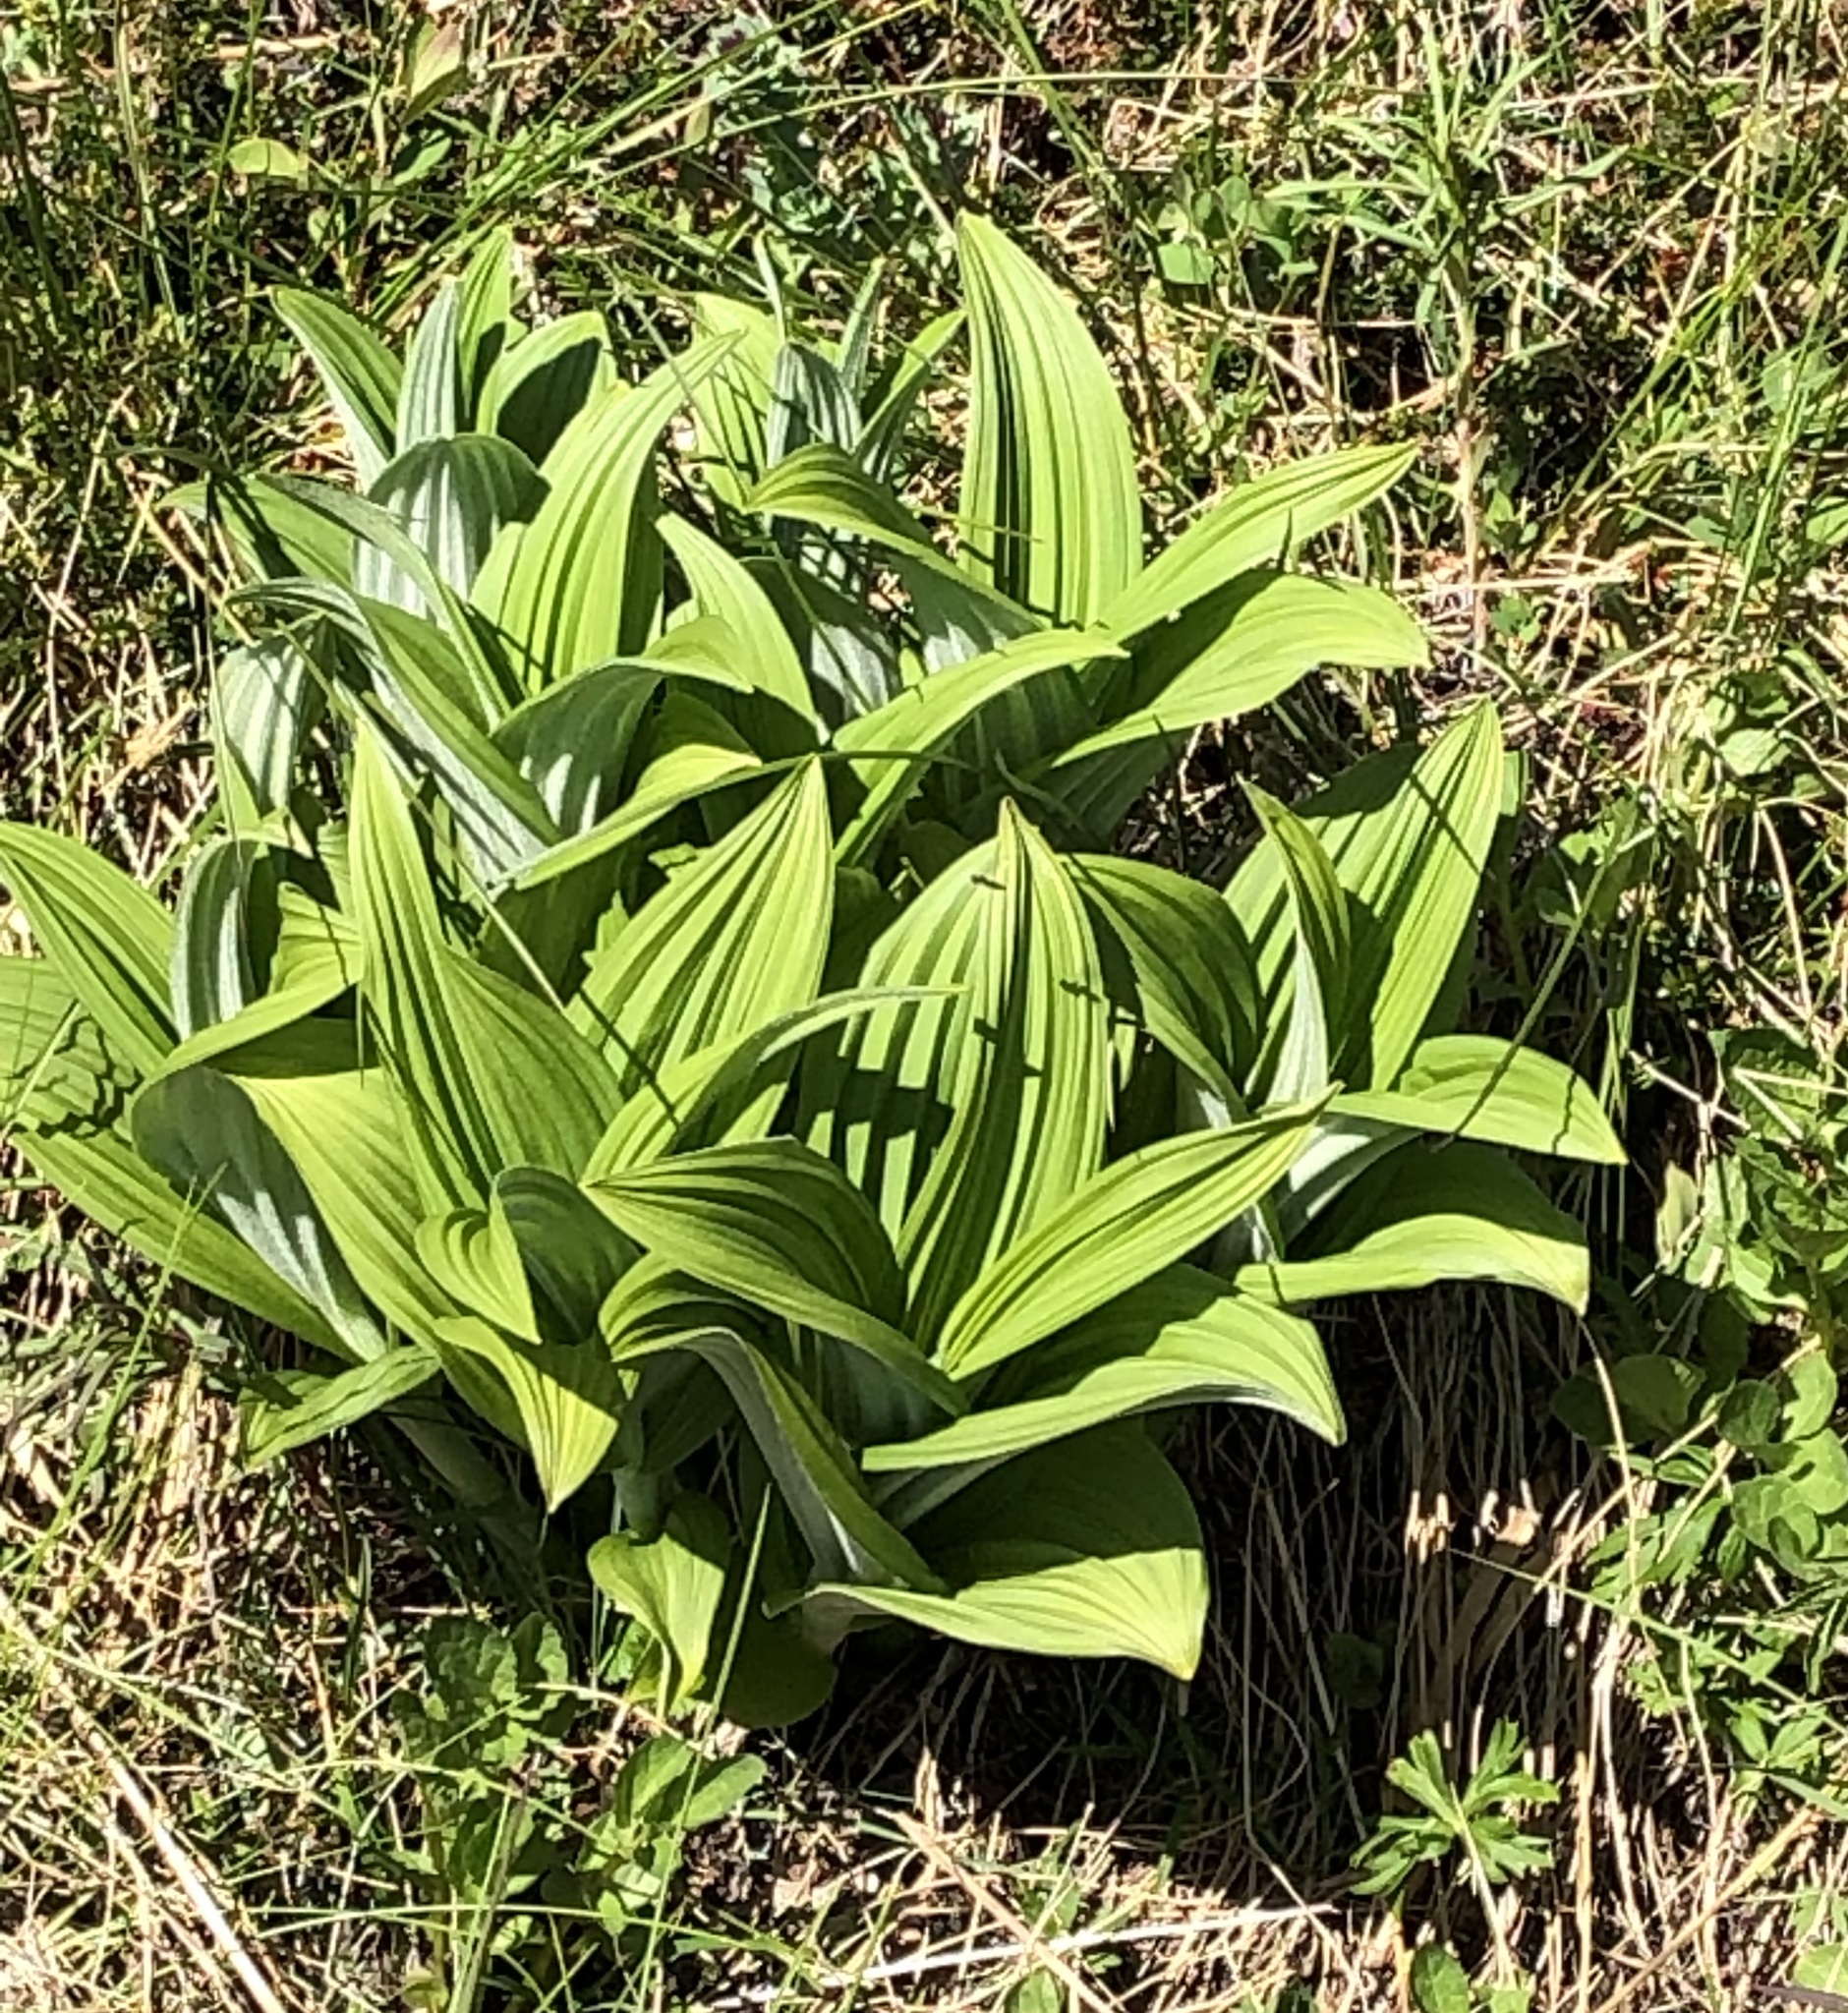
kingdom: Plantae
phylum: Tracheophyta
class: Liliopsida
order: Liliales
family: Melanthiaceae
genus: Veratrum
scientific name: Veratrum viride
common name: American false hellebore
